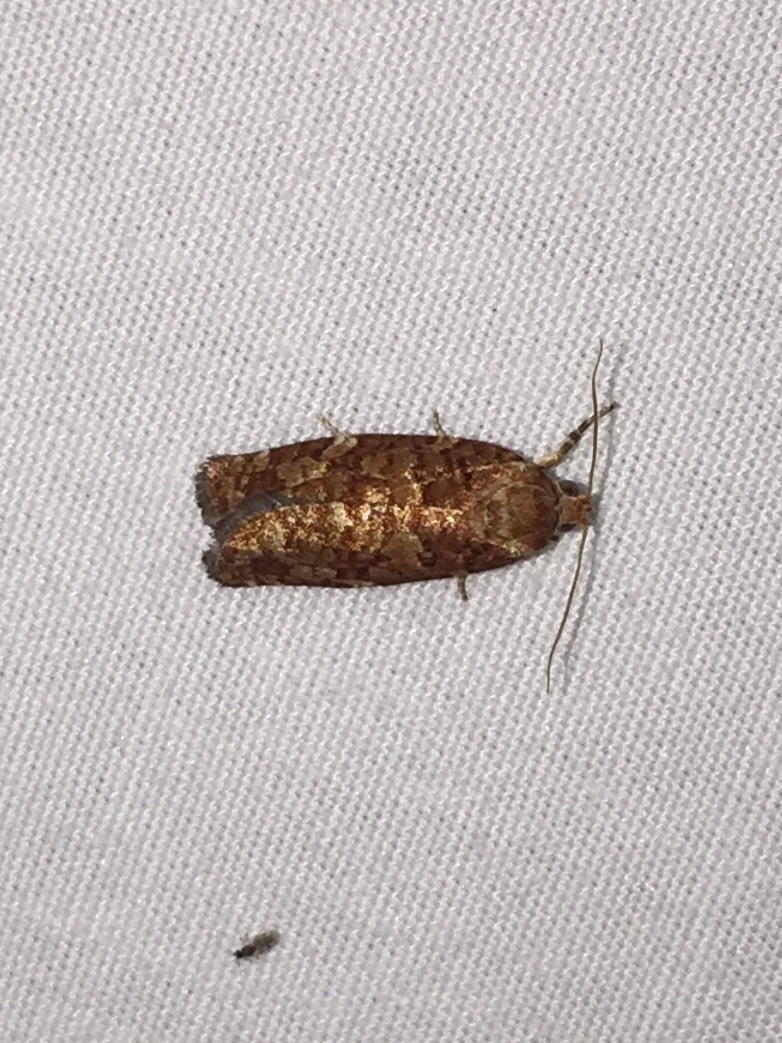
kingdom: Animalia
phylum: Arthropoda
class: Insecta
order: Lepidoptera
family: Tortricidae
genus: Choristoneura
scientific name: Choristoneura pinus
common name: Jack pine budworm
